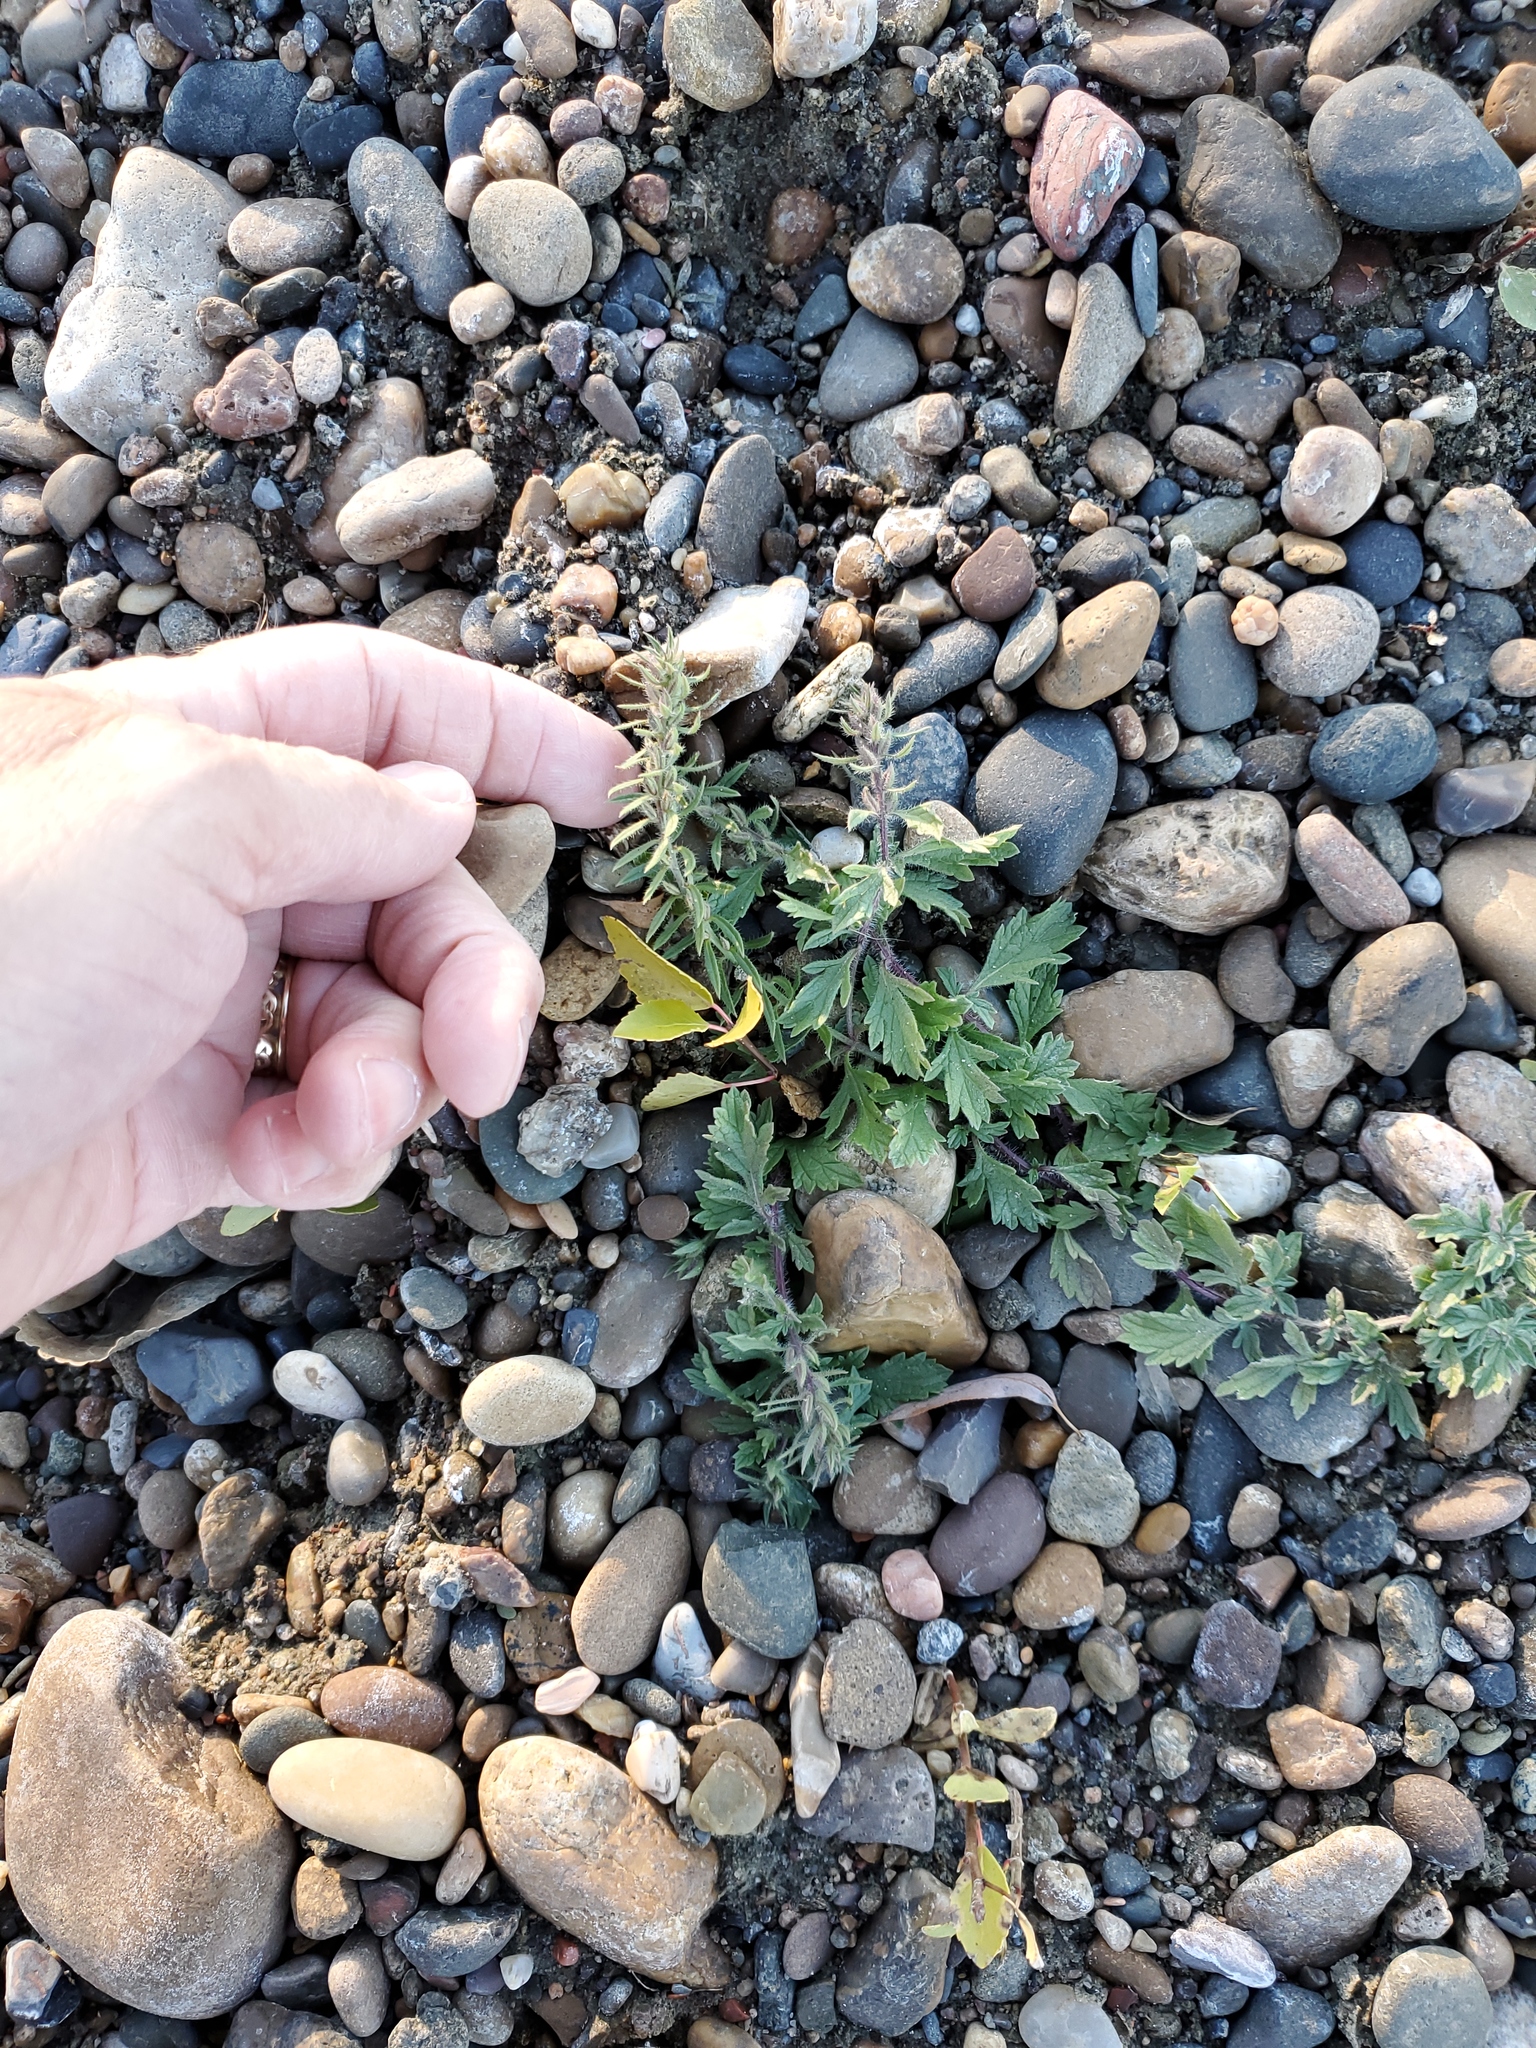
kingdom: Plantae
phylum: Tracheophyta
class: Magnoliopsida
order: Lamiales
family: Verbenaceae
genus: Verbena
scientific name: Verbena bracteata
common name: Bracted vervain
